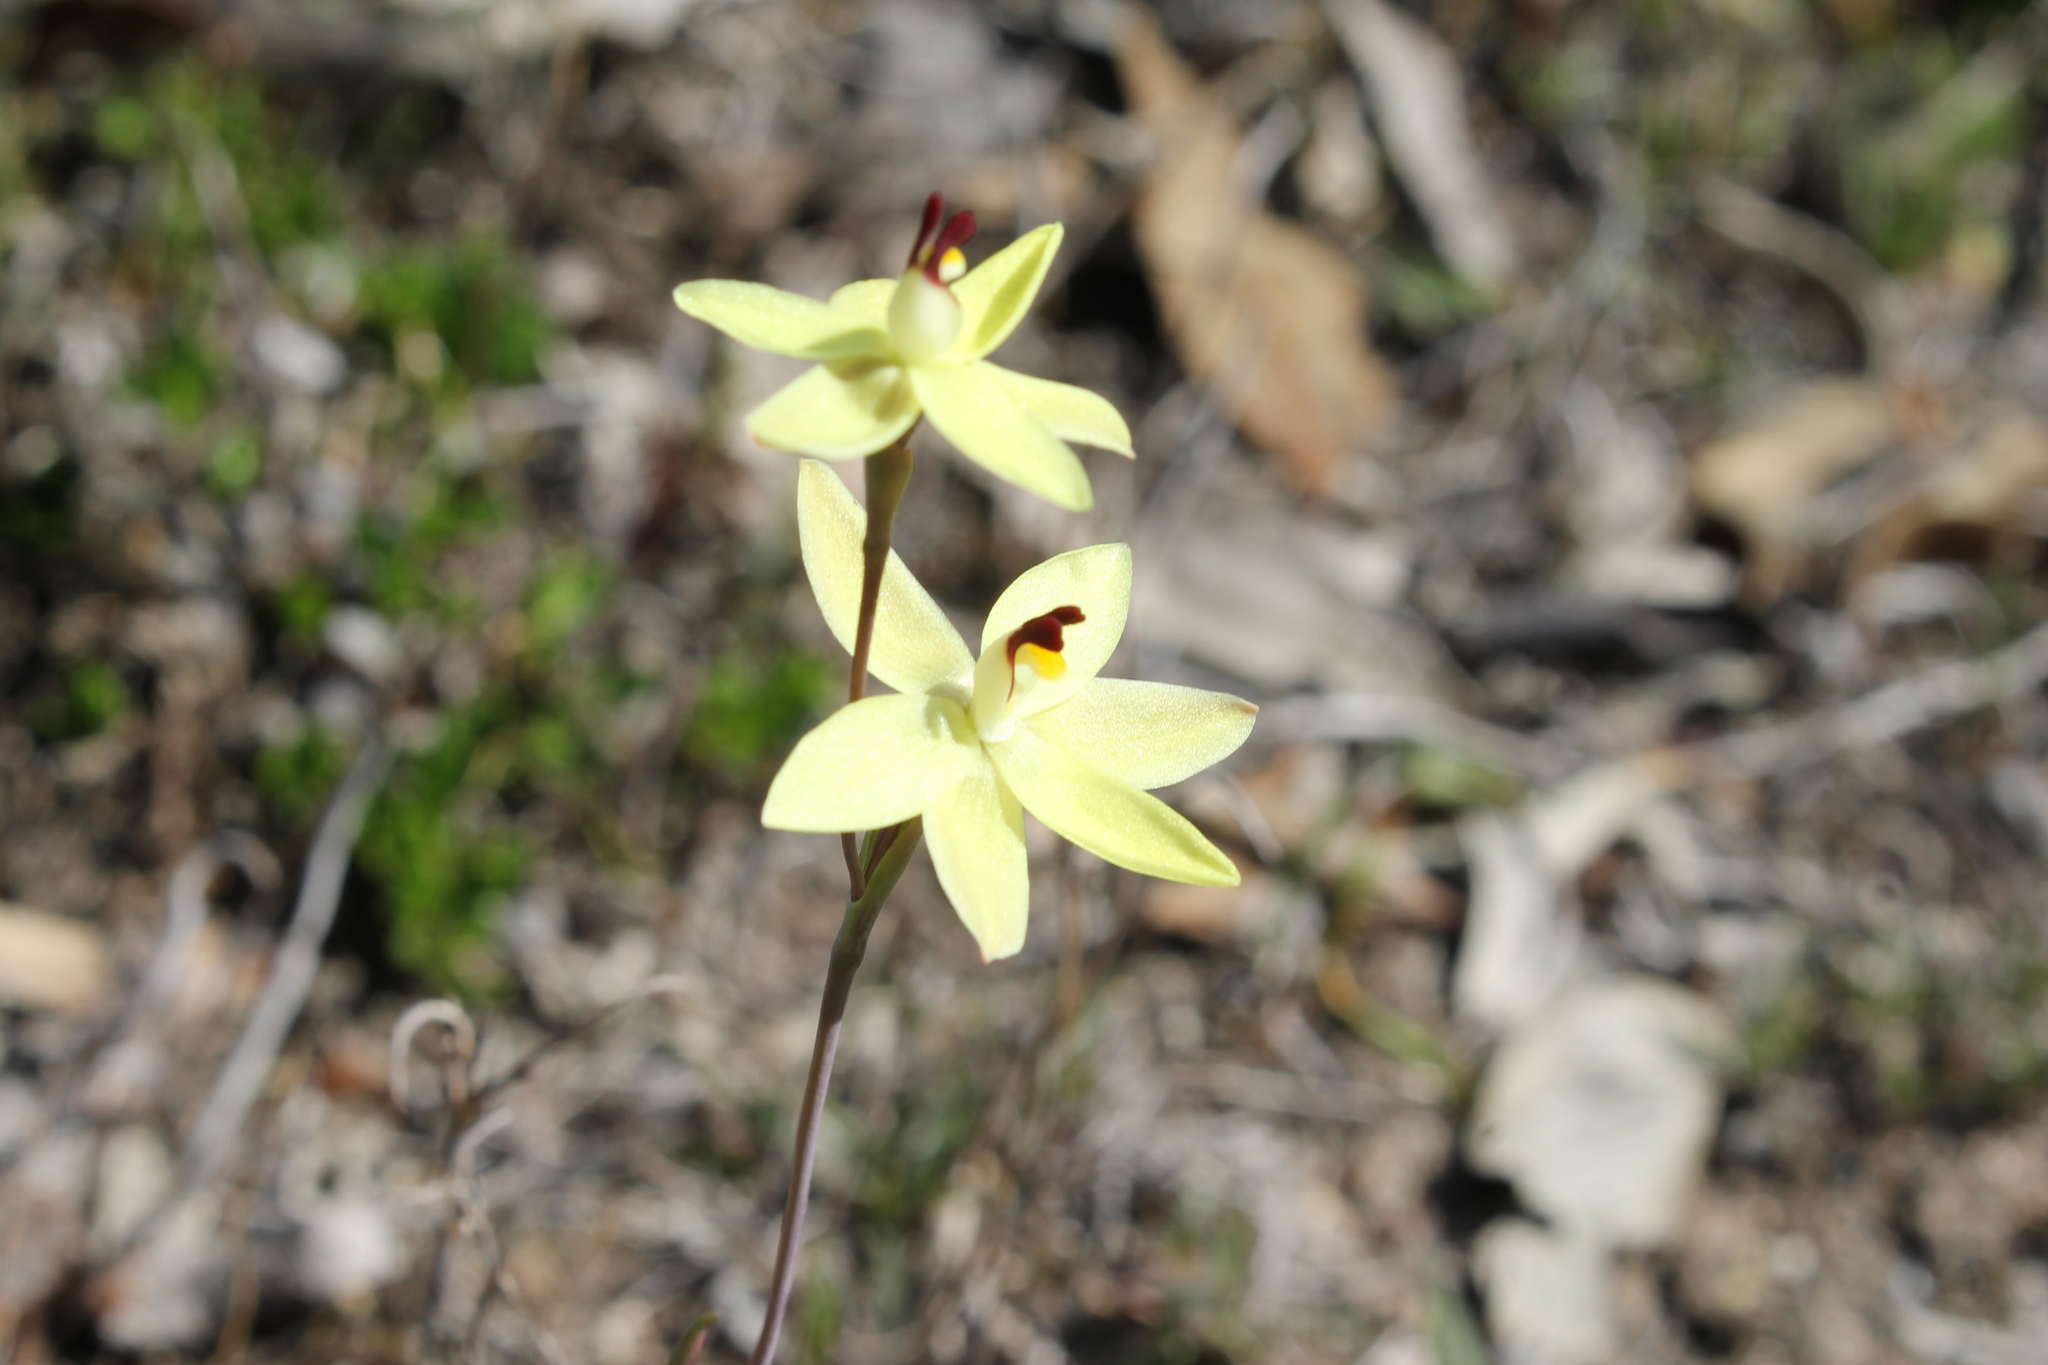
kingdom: Plantae
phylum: Tracheophyta
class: Liliopsida
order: Asparagales
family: Orchidaceae
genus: Thelymitra
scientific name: Thelymitra antennifera
